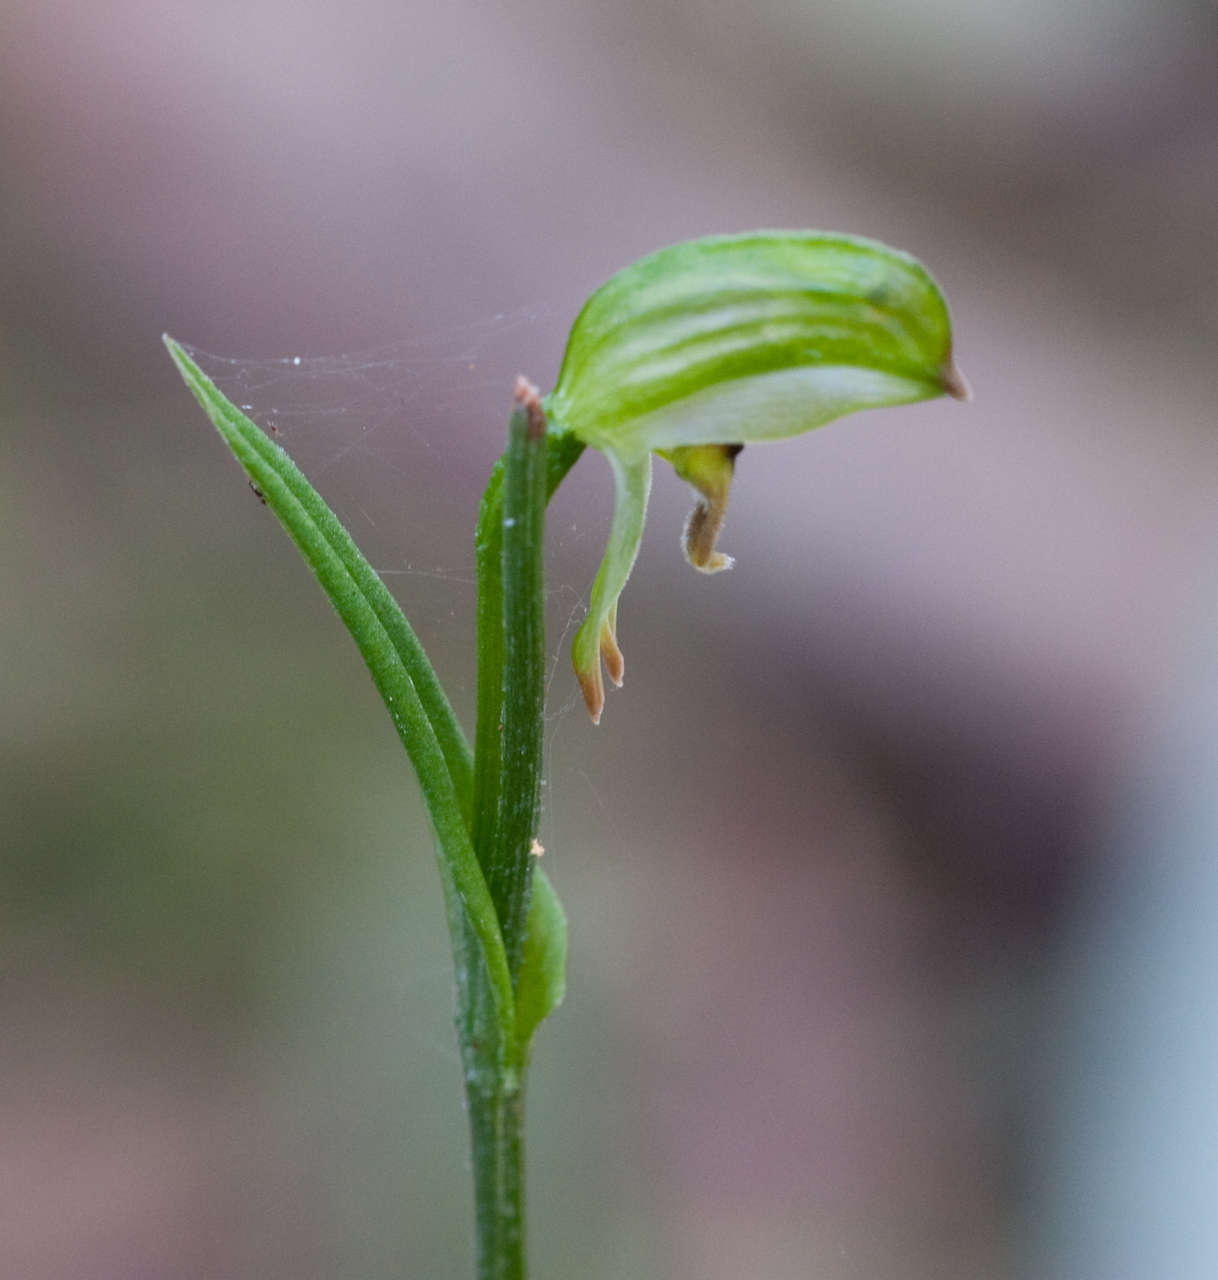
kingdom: Plantae
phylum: Tracheophyta
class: Liliopsida
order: Asparagales
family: Orchidaceae
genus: Pterostylis
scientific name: Pterostylis melagramma
